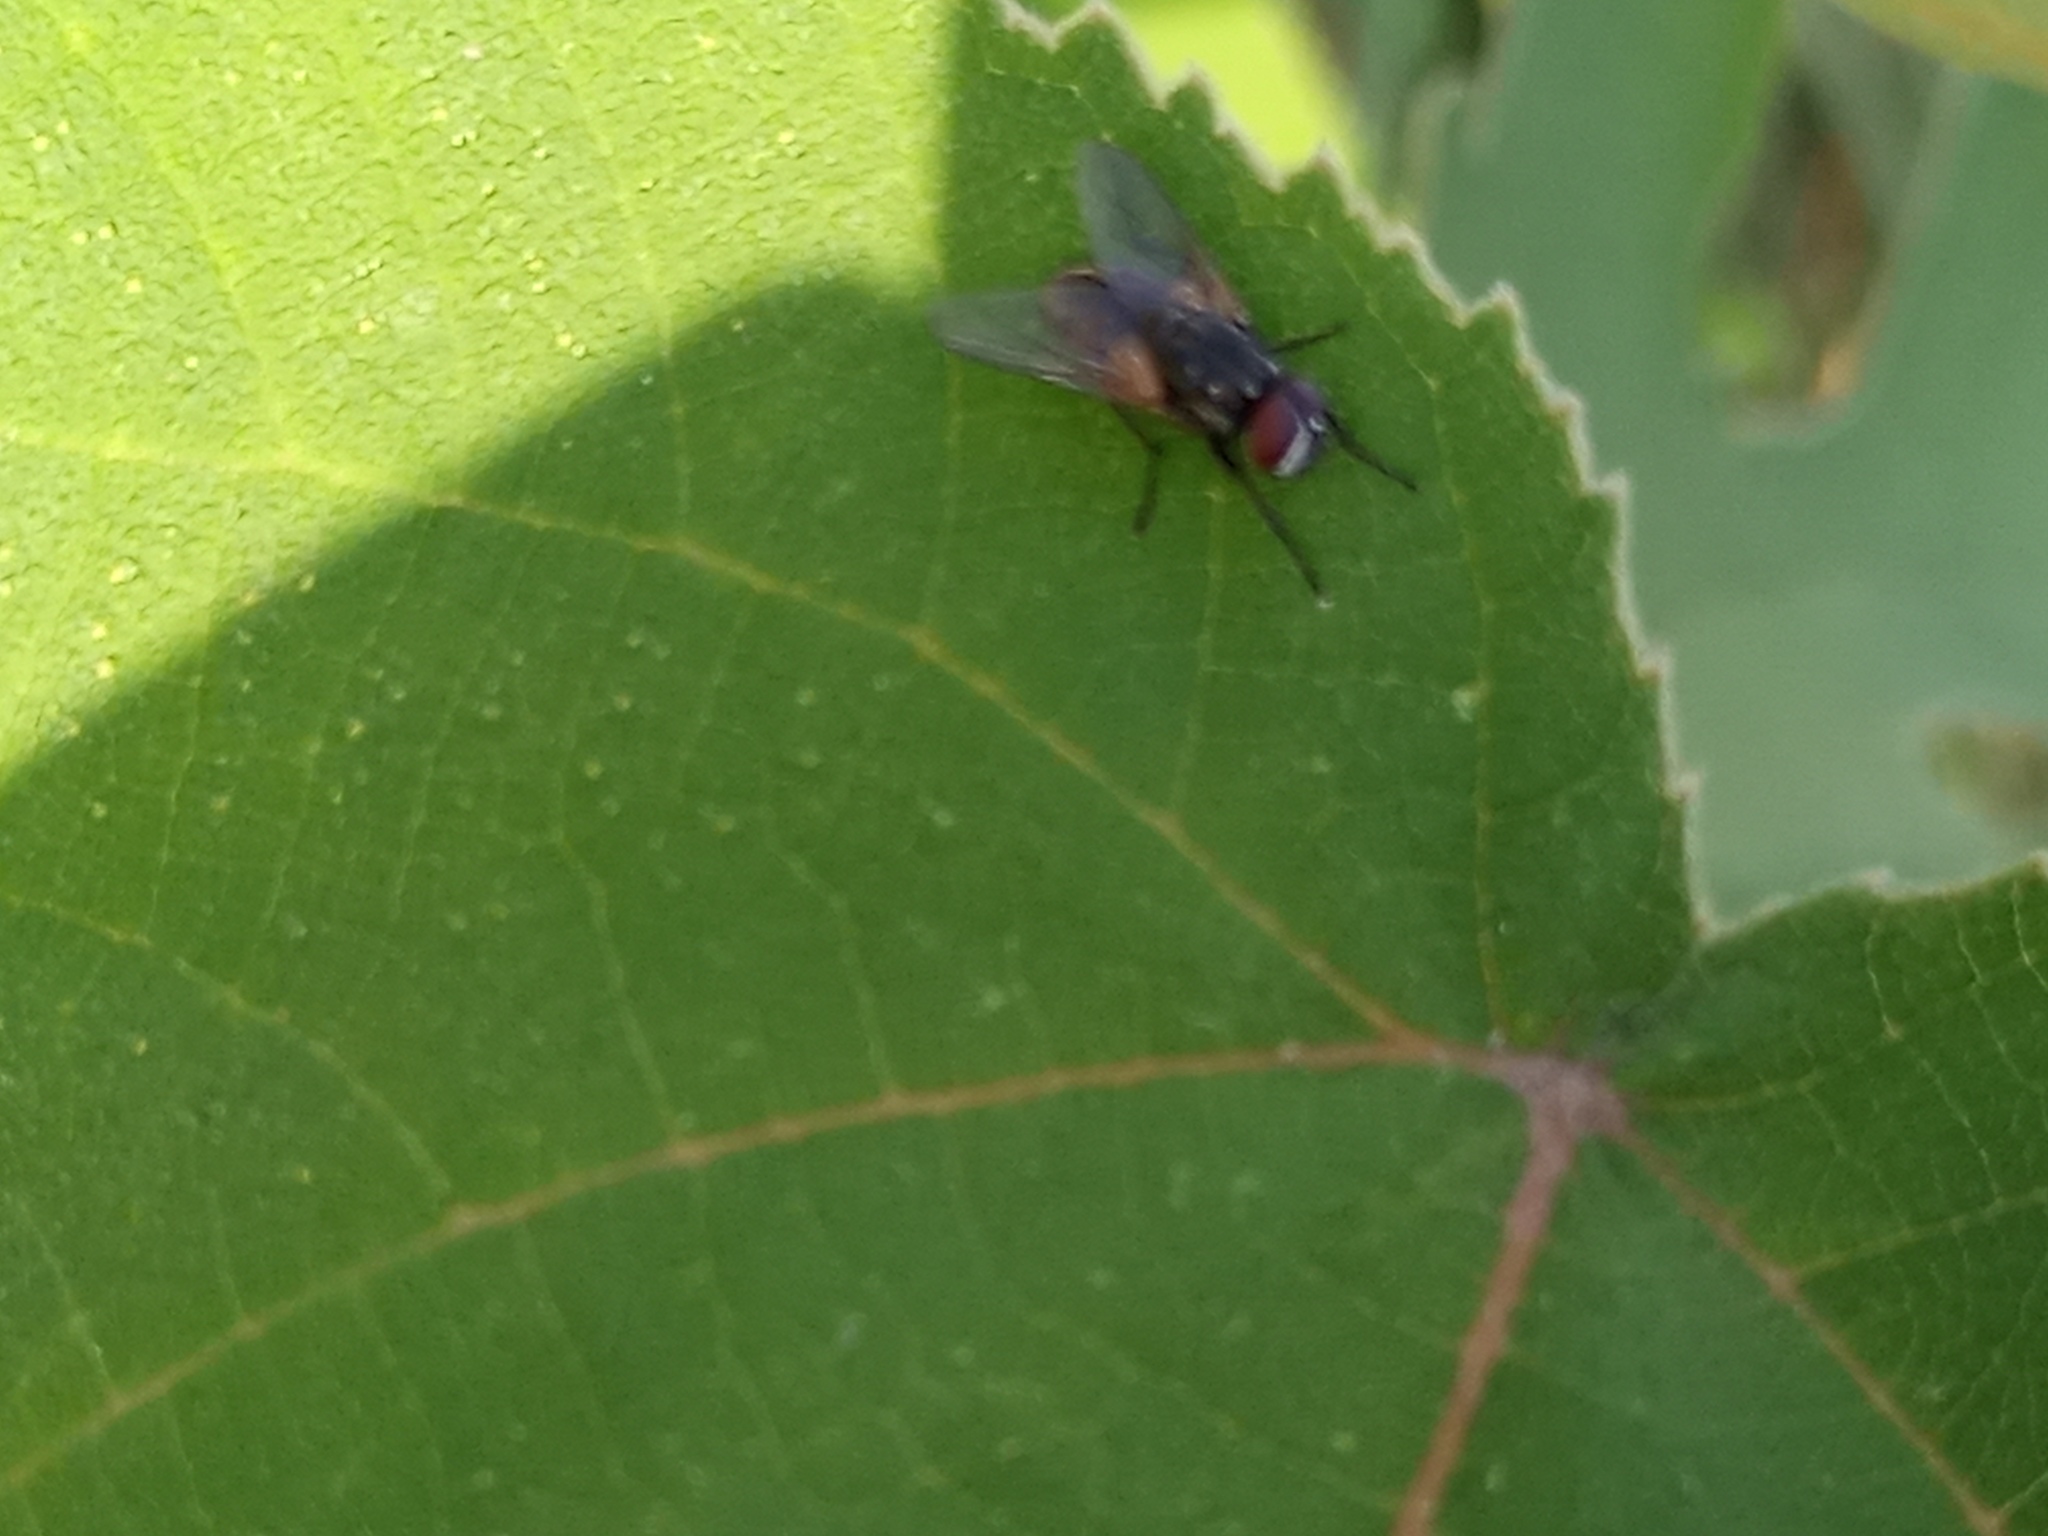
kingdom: Animalia
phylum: Arthropoda
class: Insecta
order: Diptera
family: Muscidae
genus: Musca
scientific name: Musca domestica
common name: House fly
